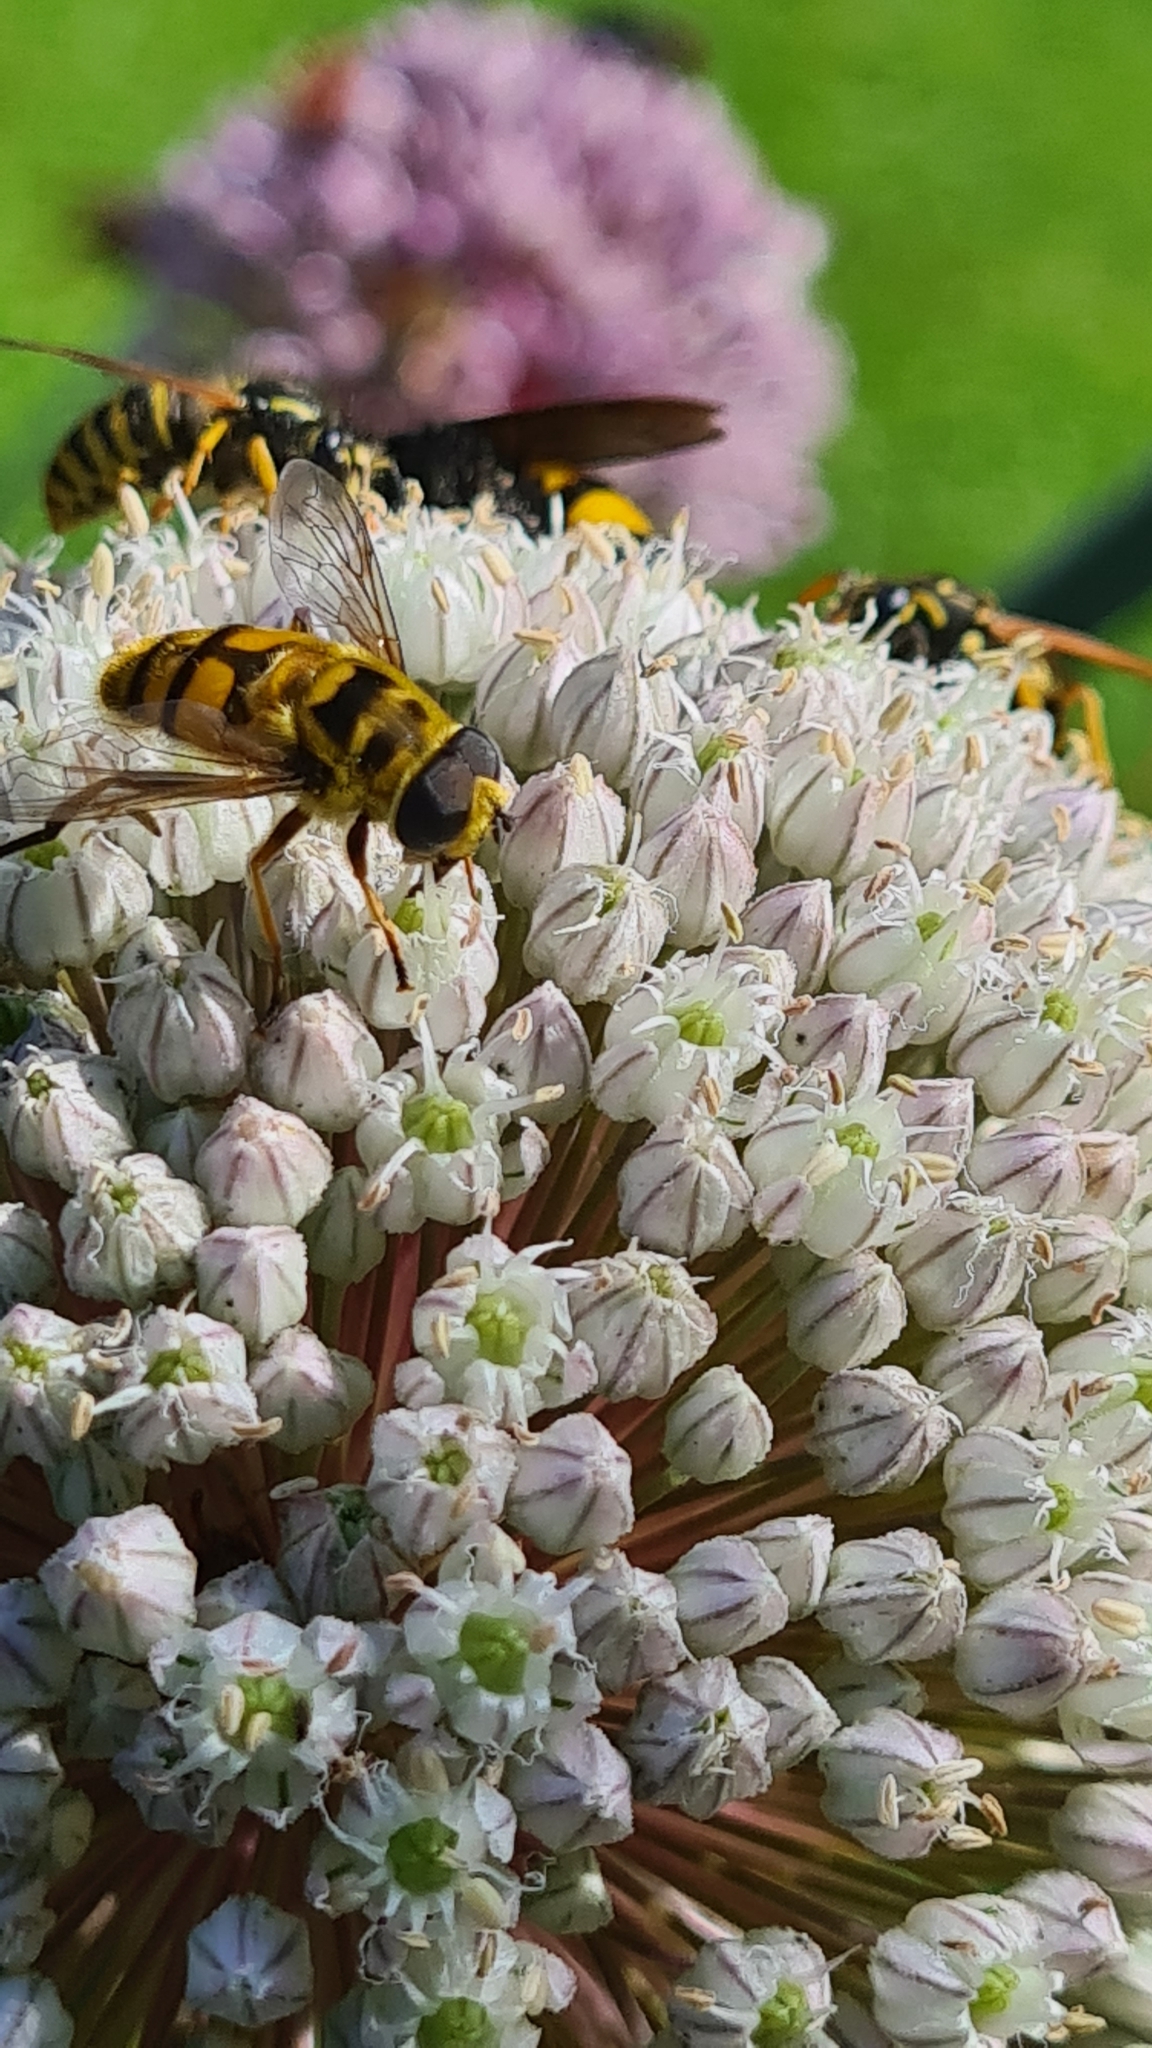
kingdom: Animalia
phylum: Arthropoda
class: Insecta
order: Diptera
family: Syrphidae
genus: Myathropa
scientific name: Myathropa florea
